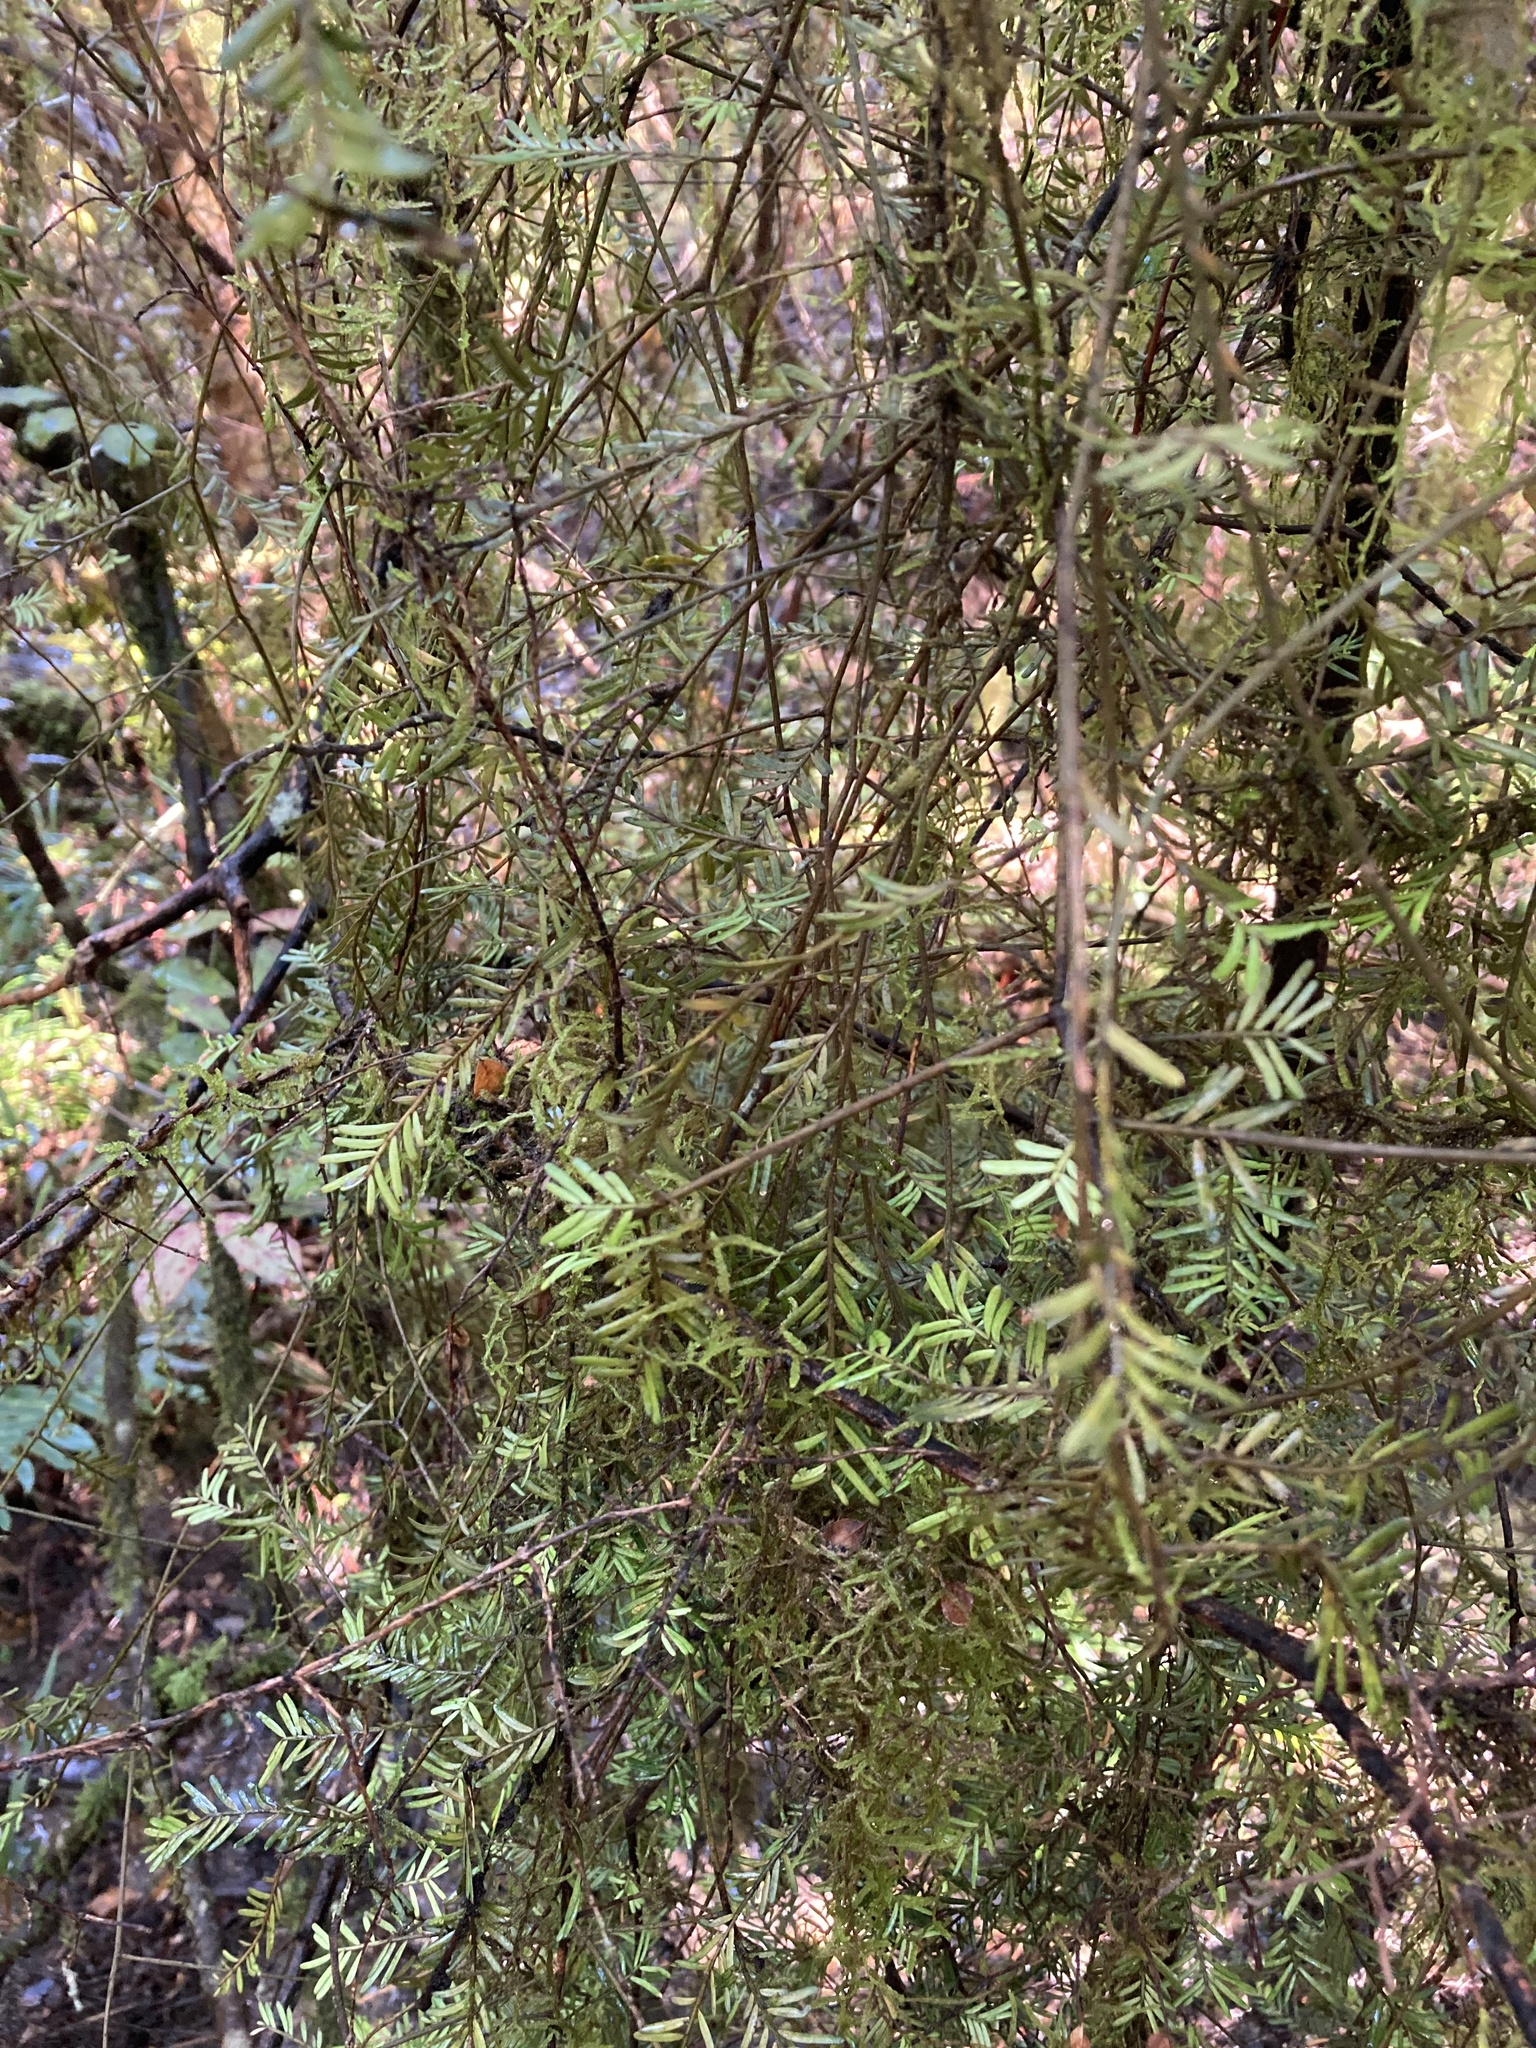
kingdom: Plantae
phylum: Tracheophyta
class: Pinopsida
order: Pinales
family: Podocarpaceae
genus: Prumnopitys
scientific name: Prumnopitys taxifolia
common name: Matai
